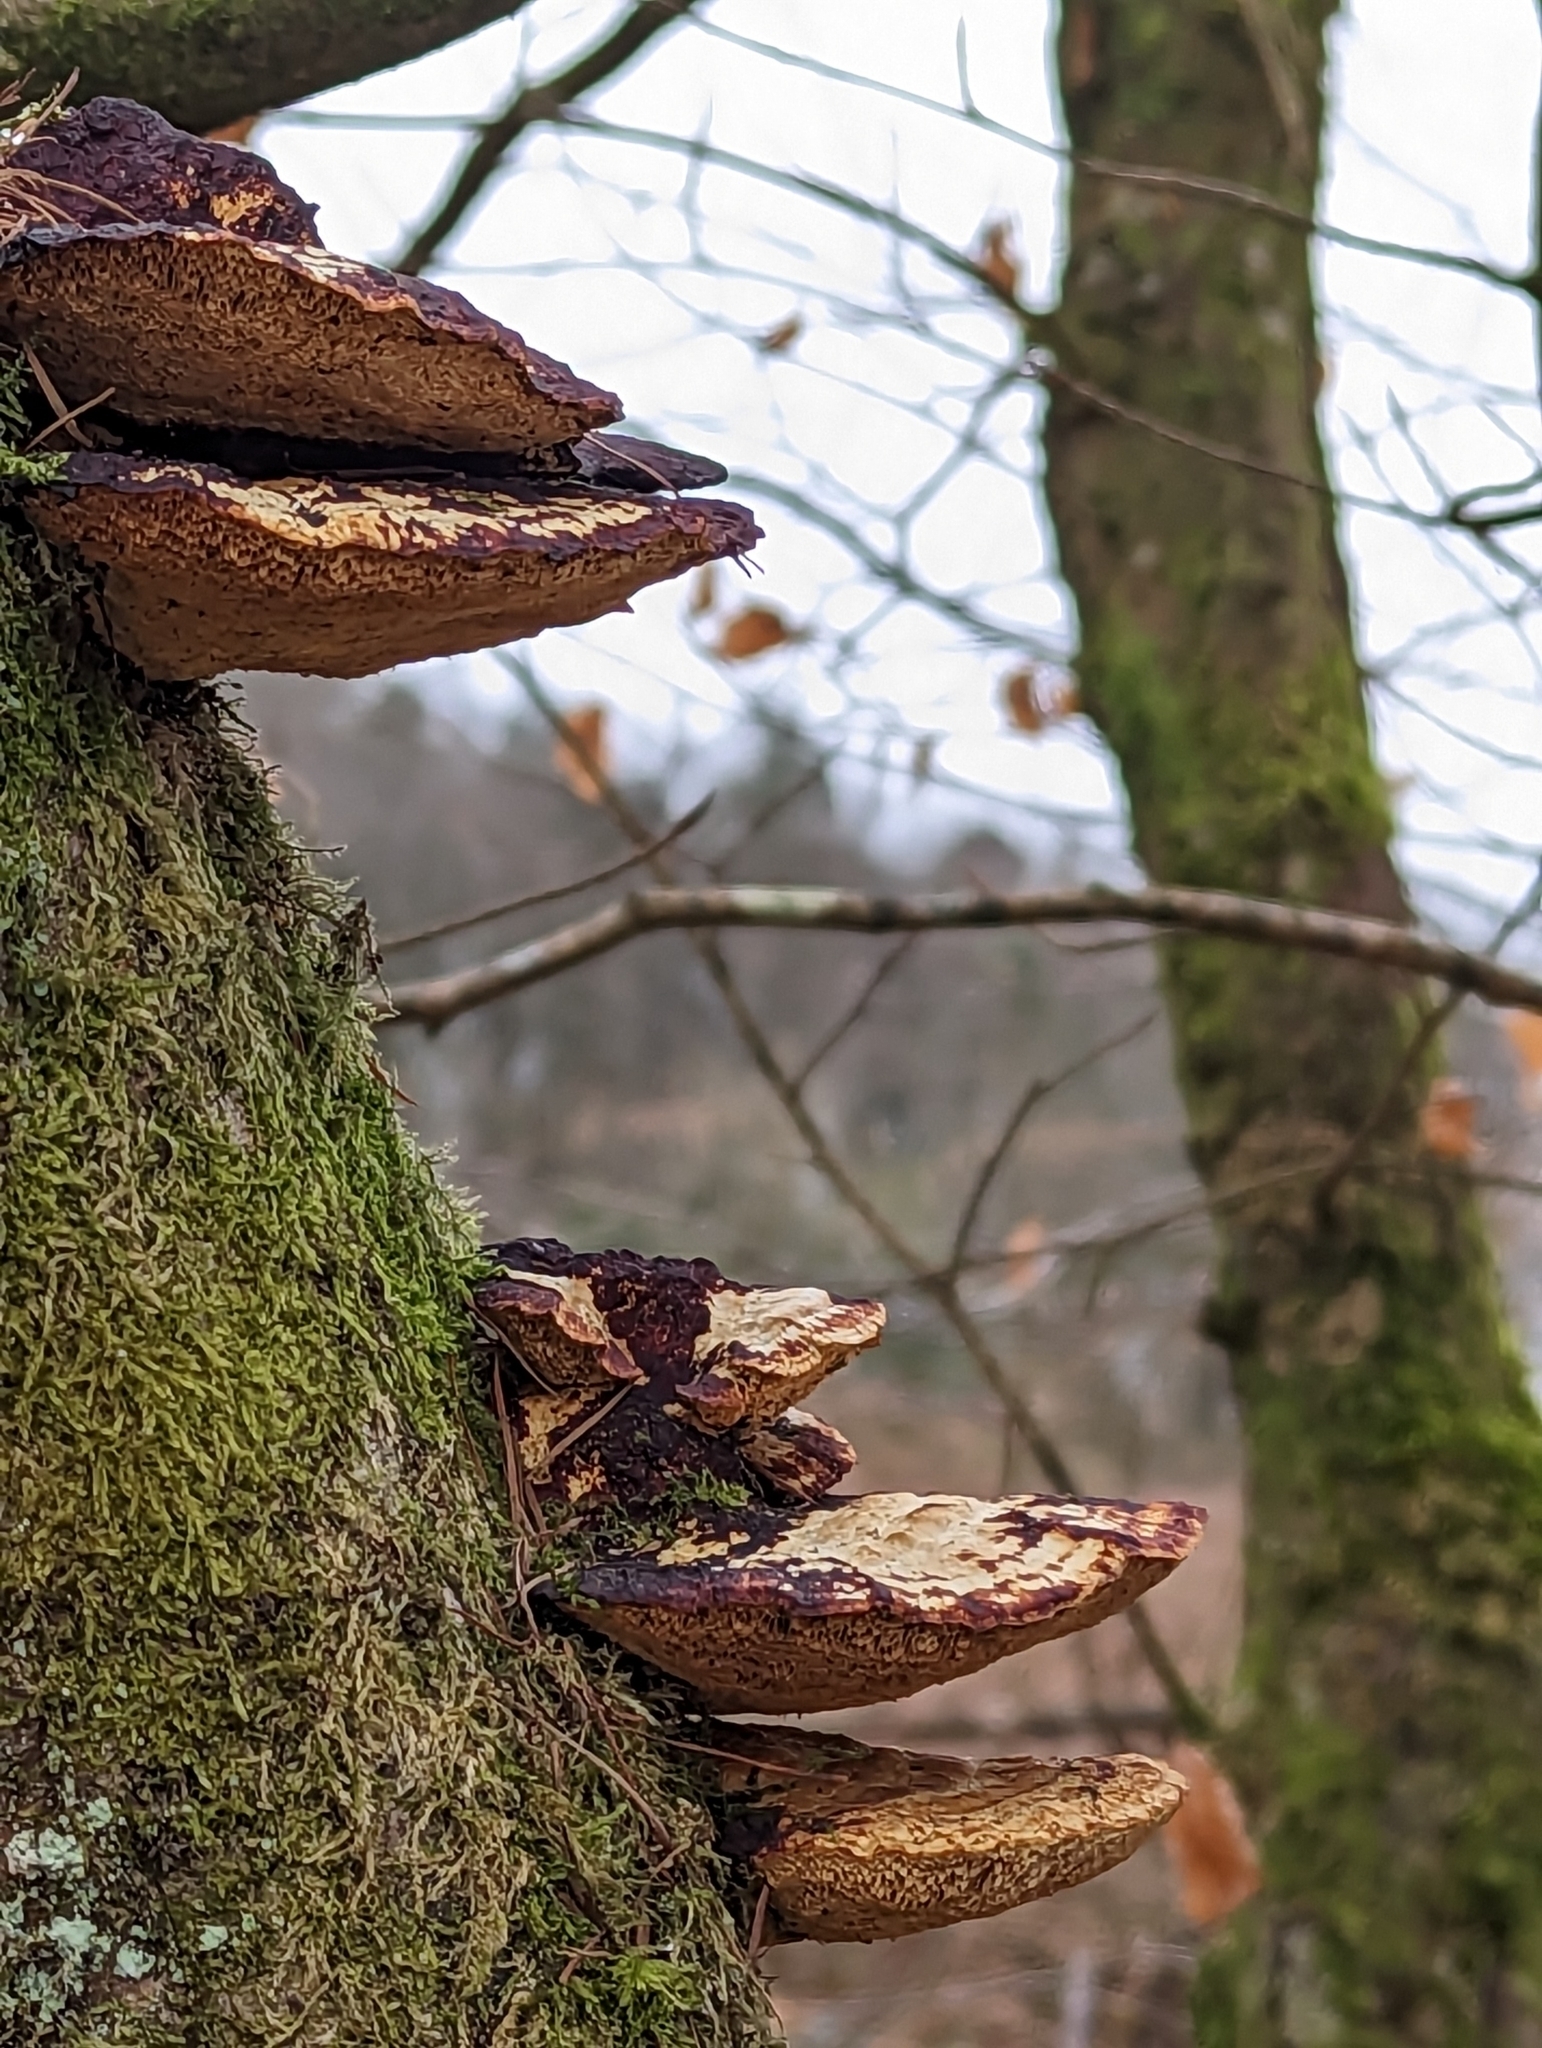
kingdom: Fungi
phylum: Basidiomycota
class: Agaricomycetes
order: Polyporales
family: Polyporaceae
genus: Daedaleopsis
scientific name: Daedaleopsis confragosa
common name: Blushing bracket
